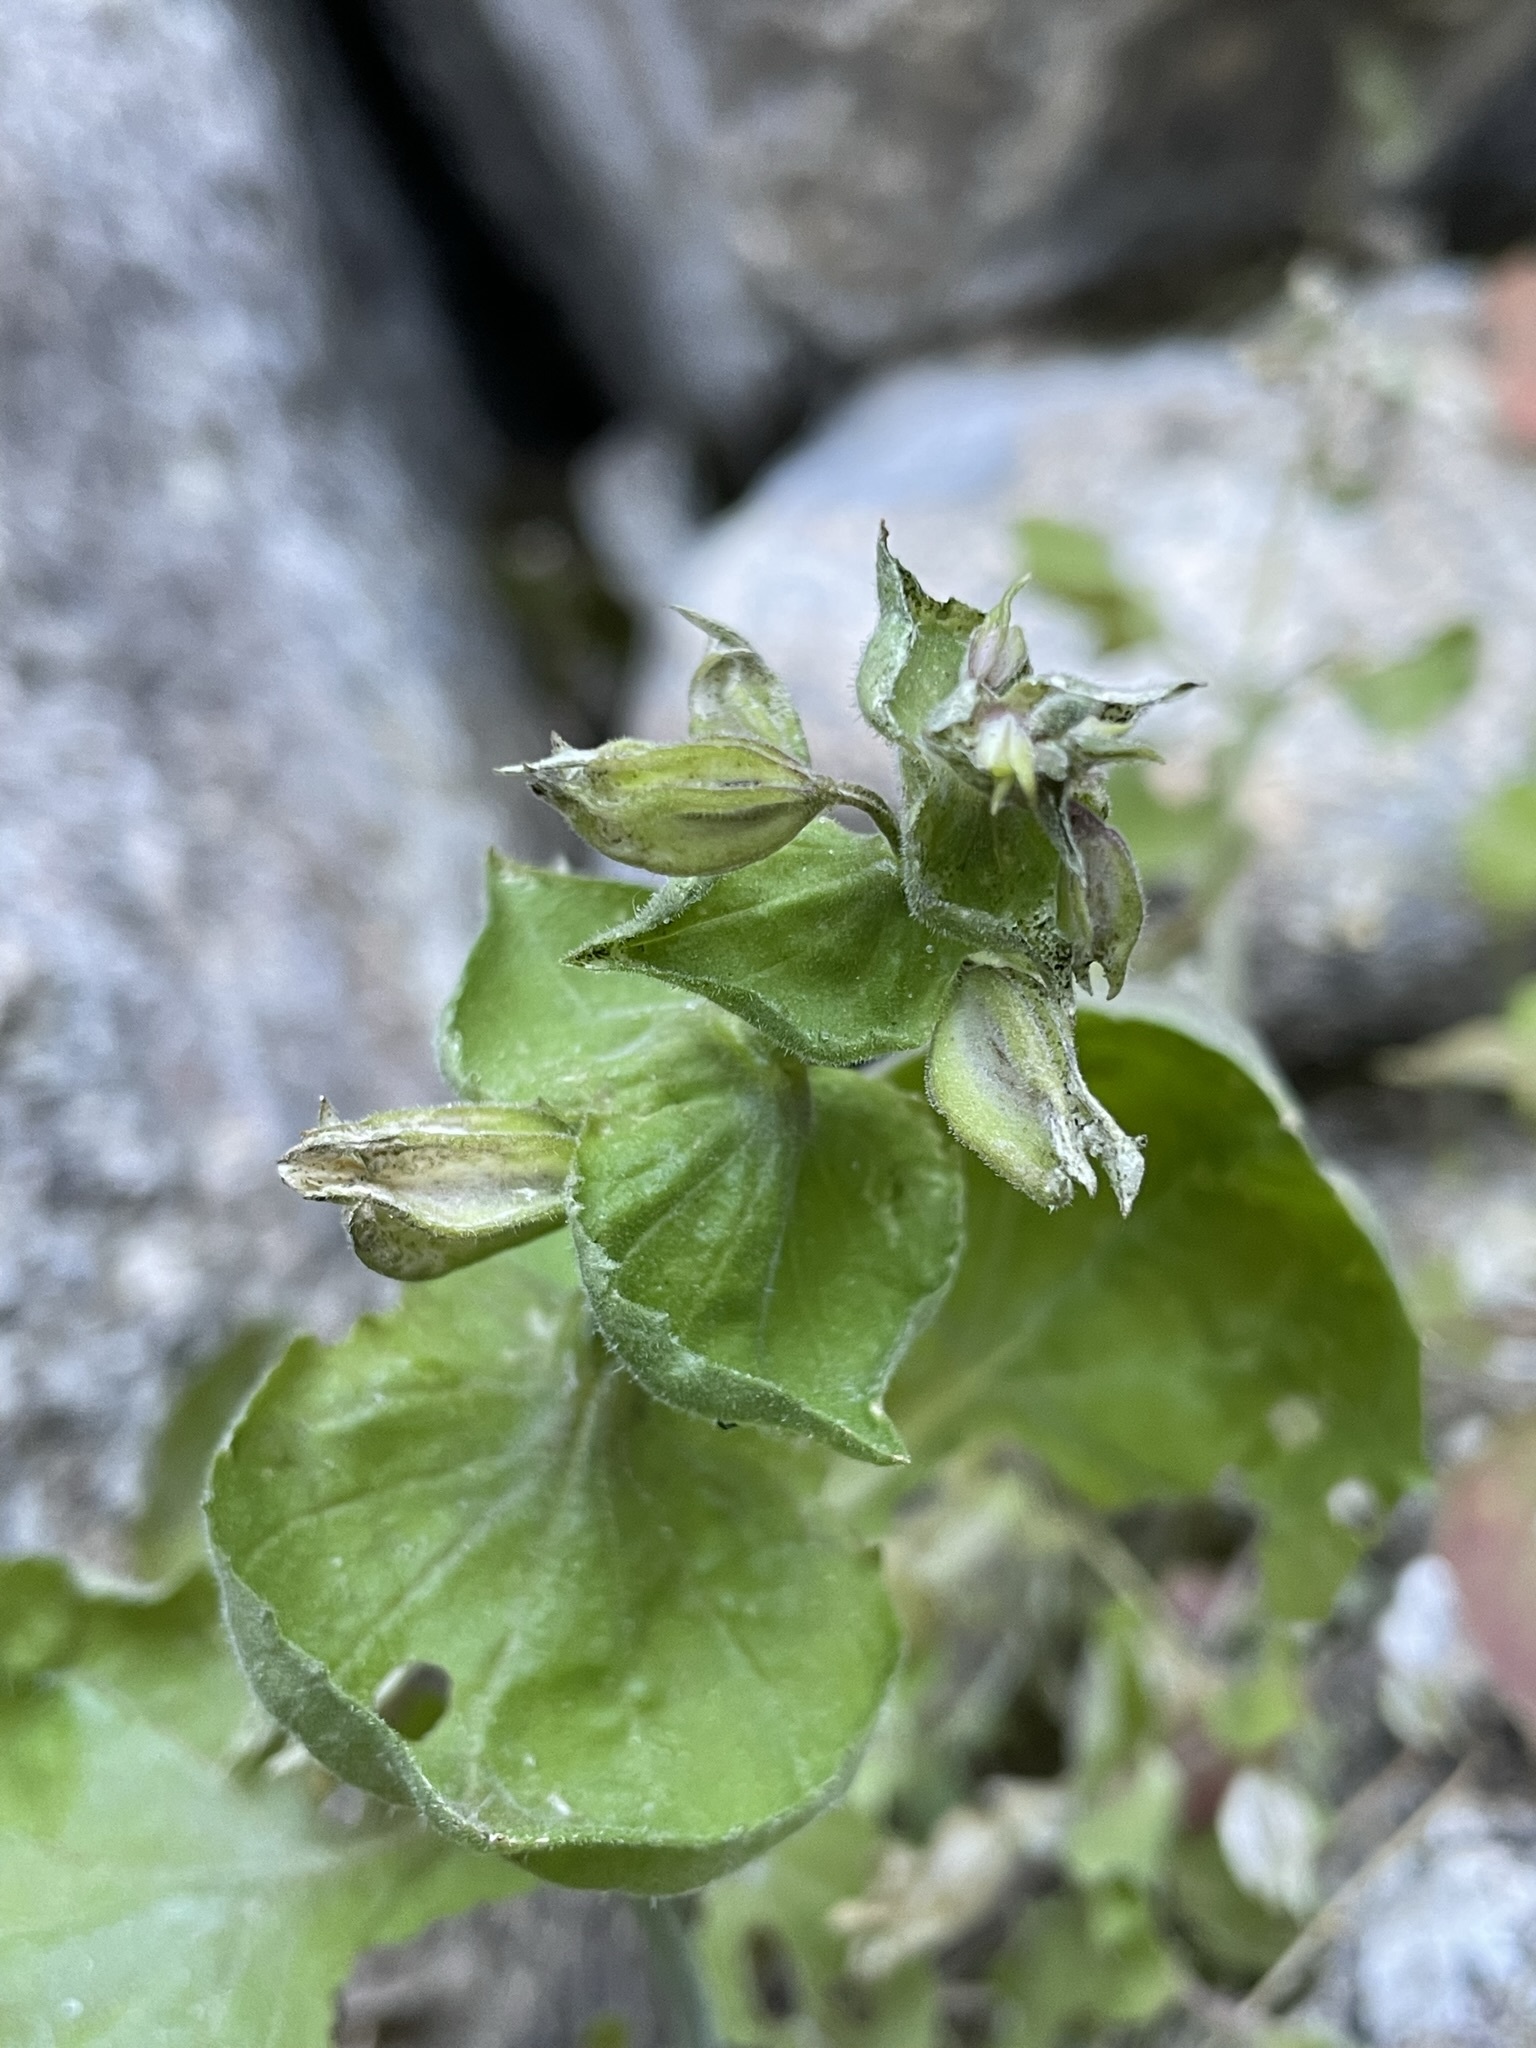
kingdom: Plantae
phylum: Tracheophyta
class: Magnoliopsida
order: Lamiales
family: Phrymaceae
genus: Erythranthe
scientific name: Erythranthe bergeri
